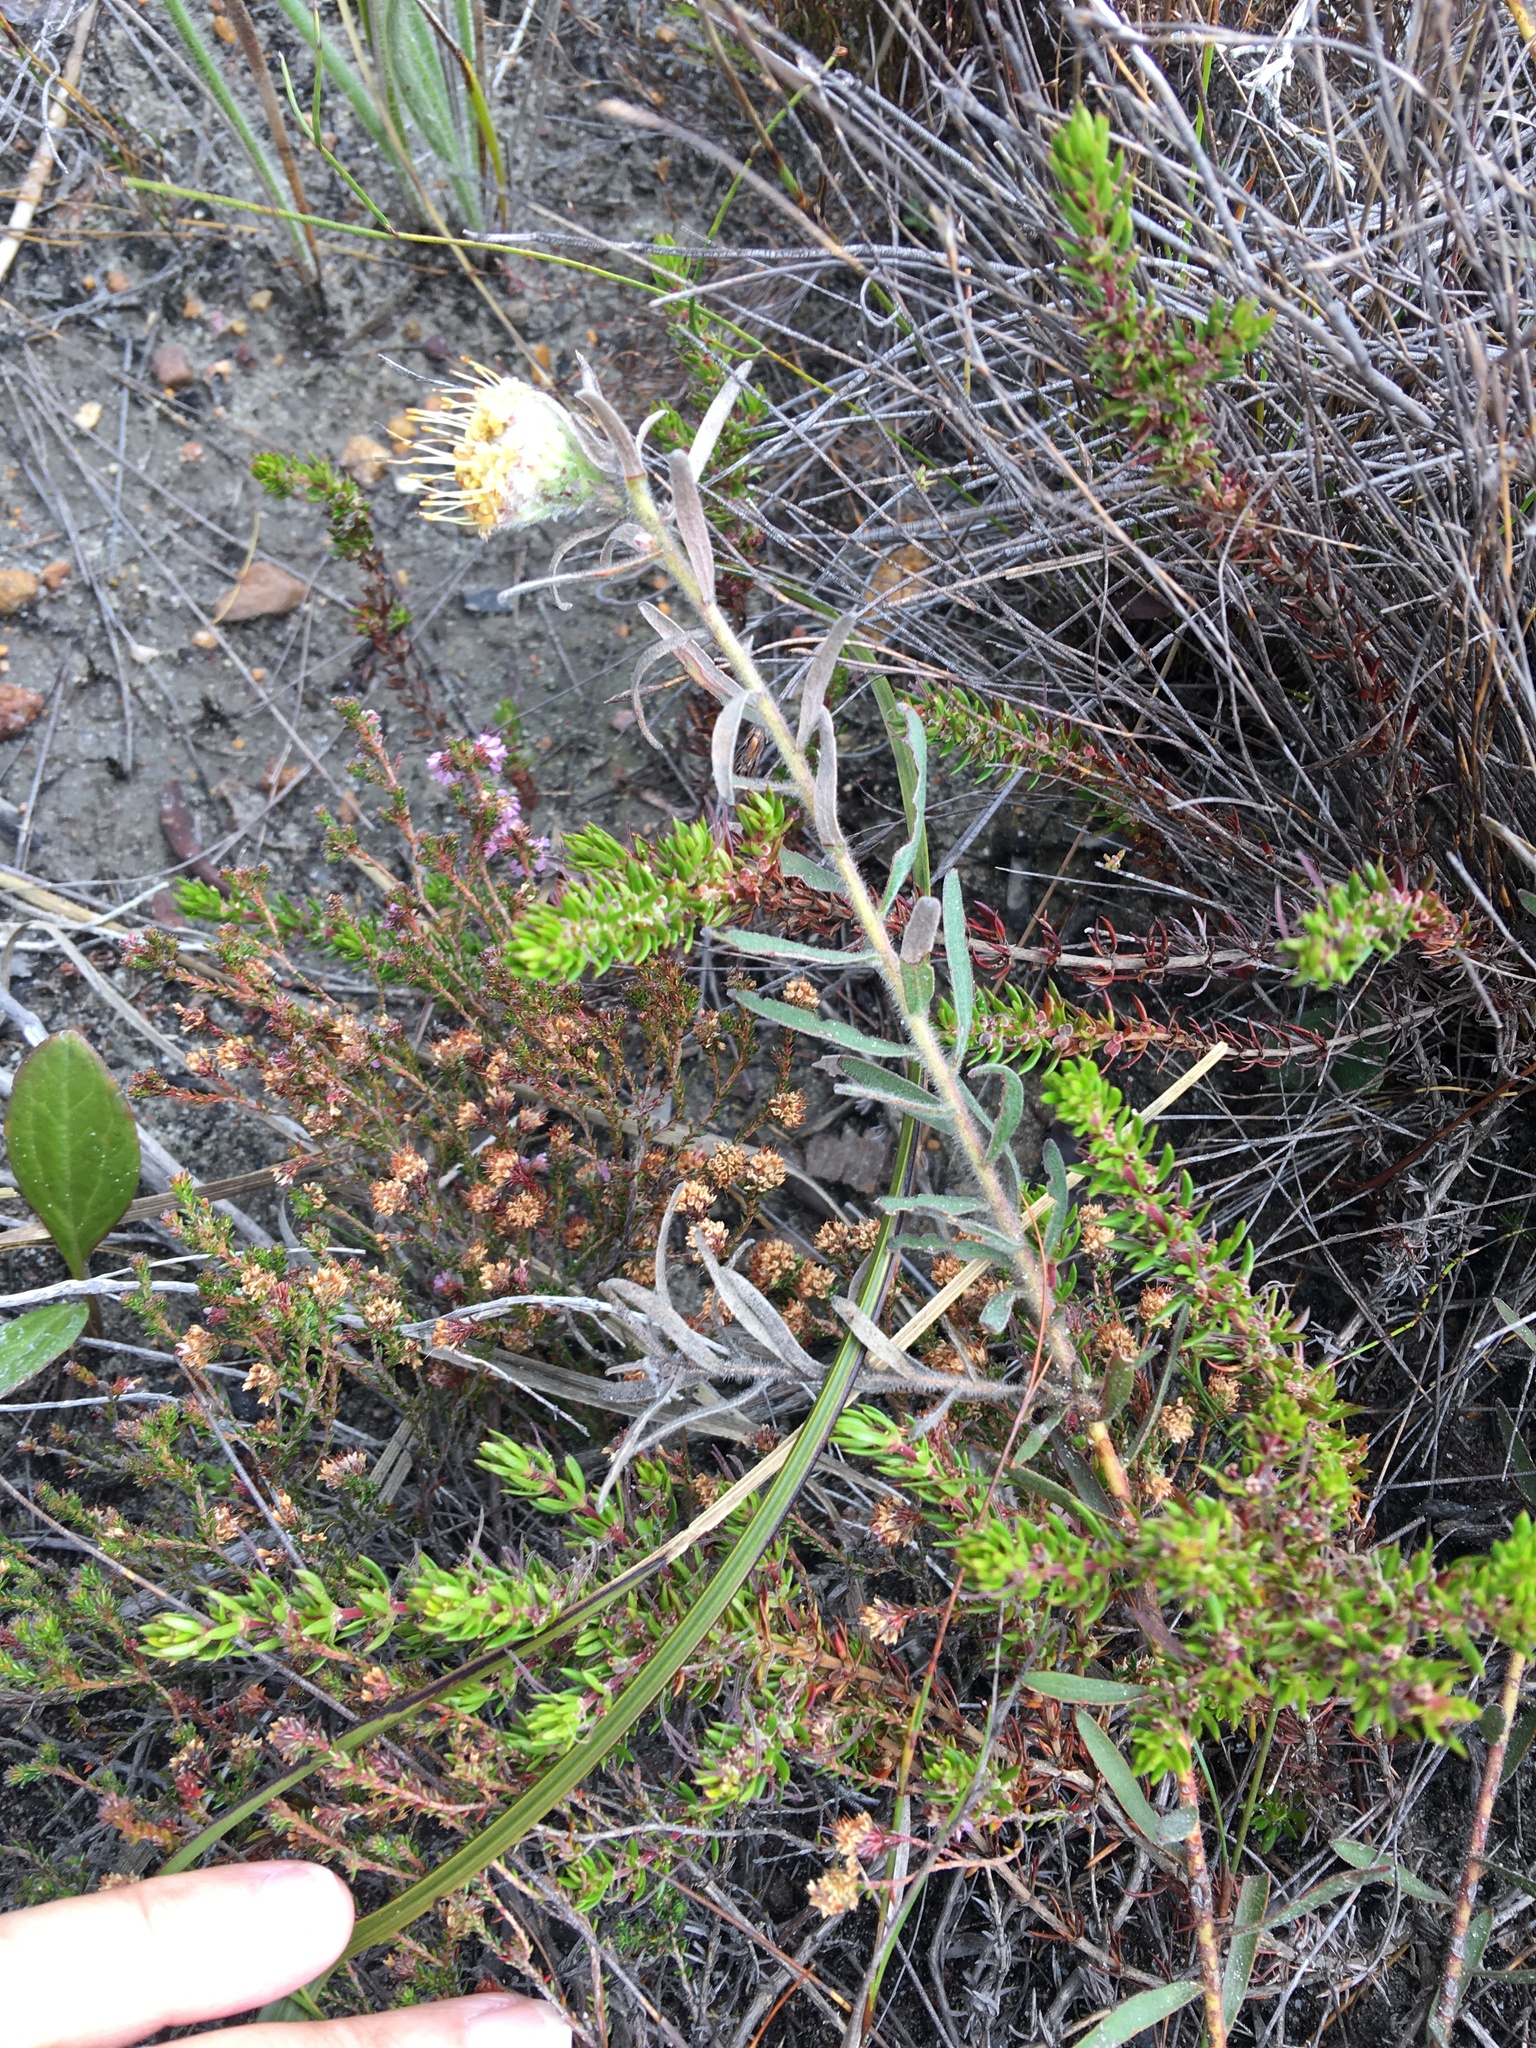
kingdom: Plantae
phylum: Tracheophyta
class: Magnoliopsida
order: Proteales
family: Proteaceae
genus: Leucospermum
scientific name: Leucospermum pedunculatum
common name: White-trailing pincushion
